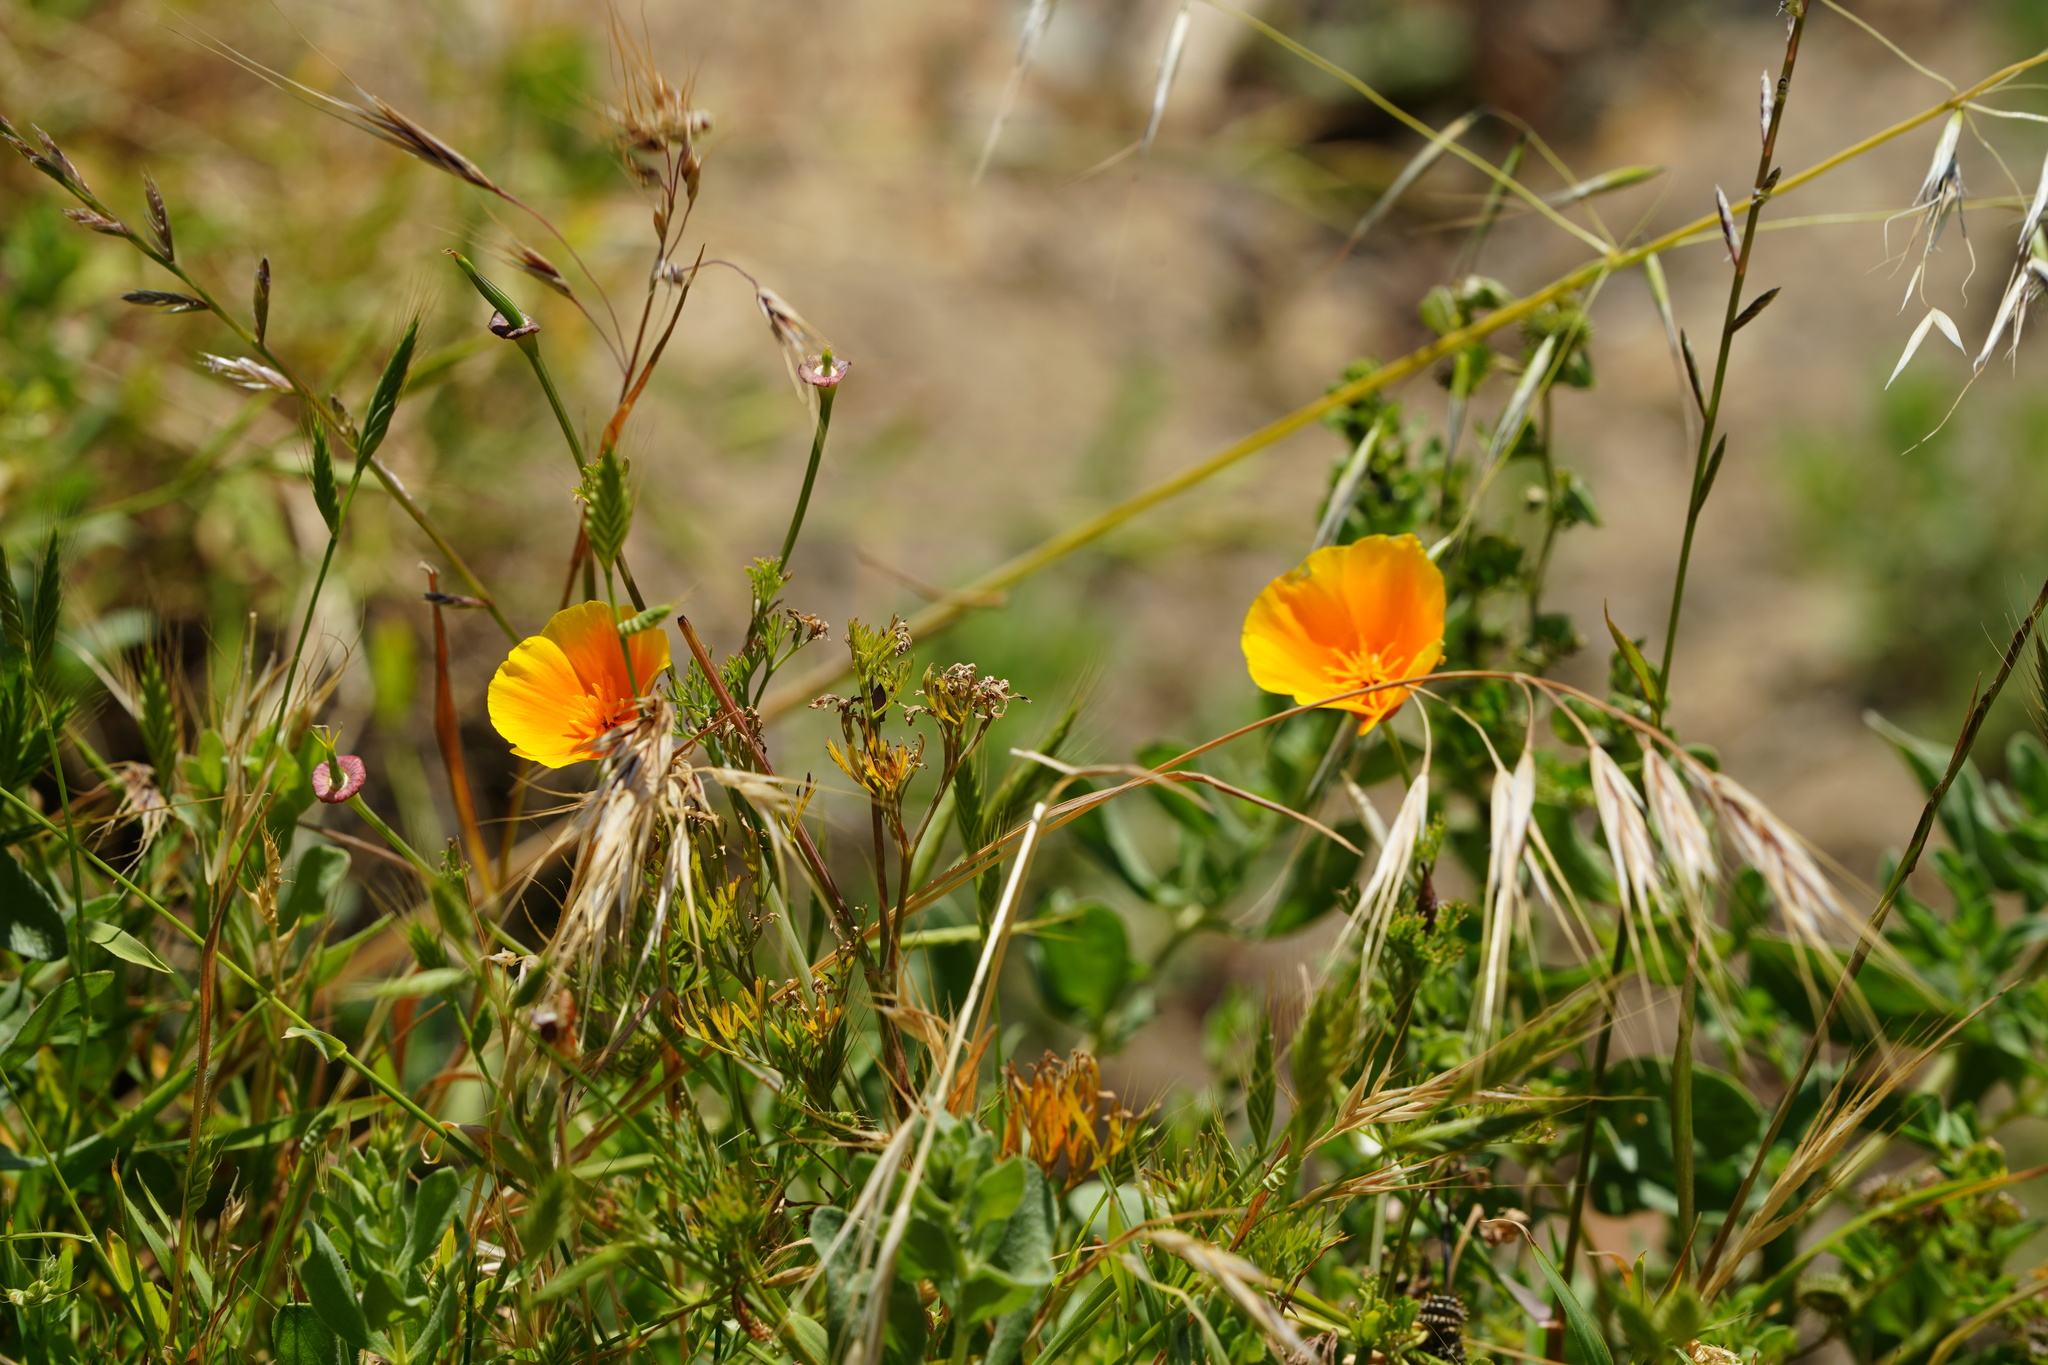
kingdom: Plantae
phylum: Tracheophyta
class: Magnoliopsida
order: Ranunculales
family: Papaveraceae
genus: Eschscholzia
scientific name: Eschscholzia californica
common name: California poppy
